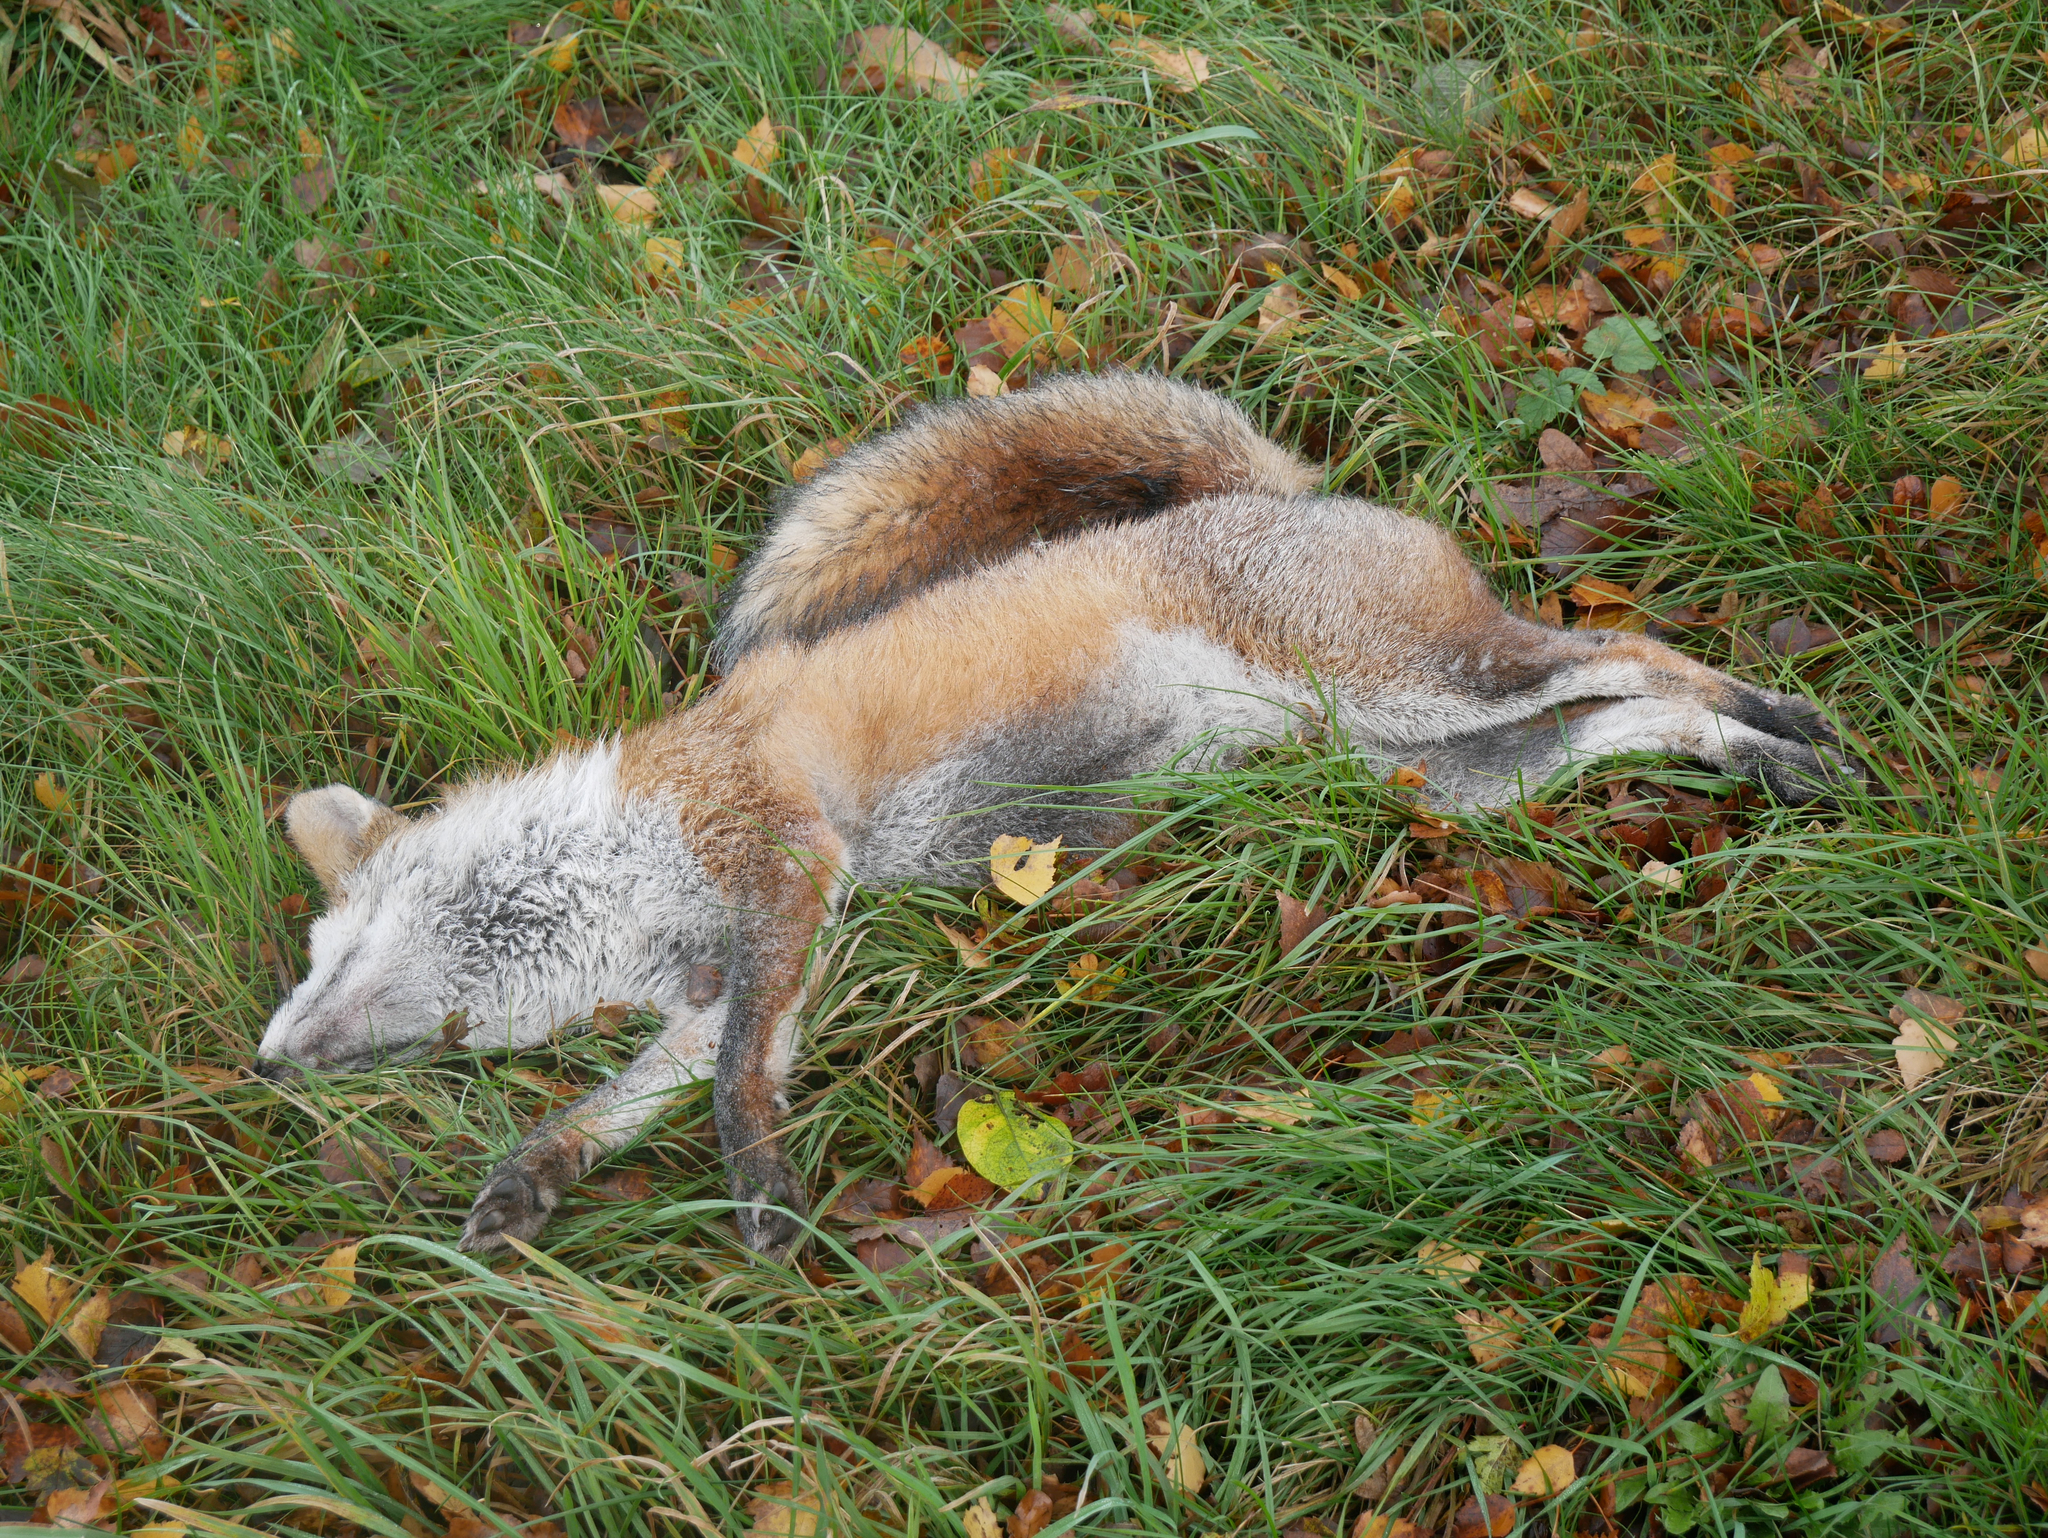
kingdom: Animalia
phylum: Chordata
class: Mammalia
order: Carnivora
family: Canidae
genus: Vulpes
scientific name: Vulpes vulpes
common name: Red fox
